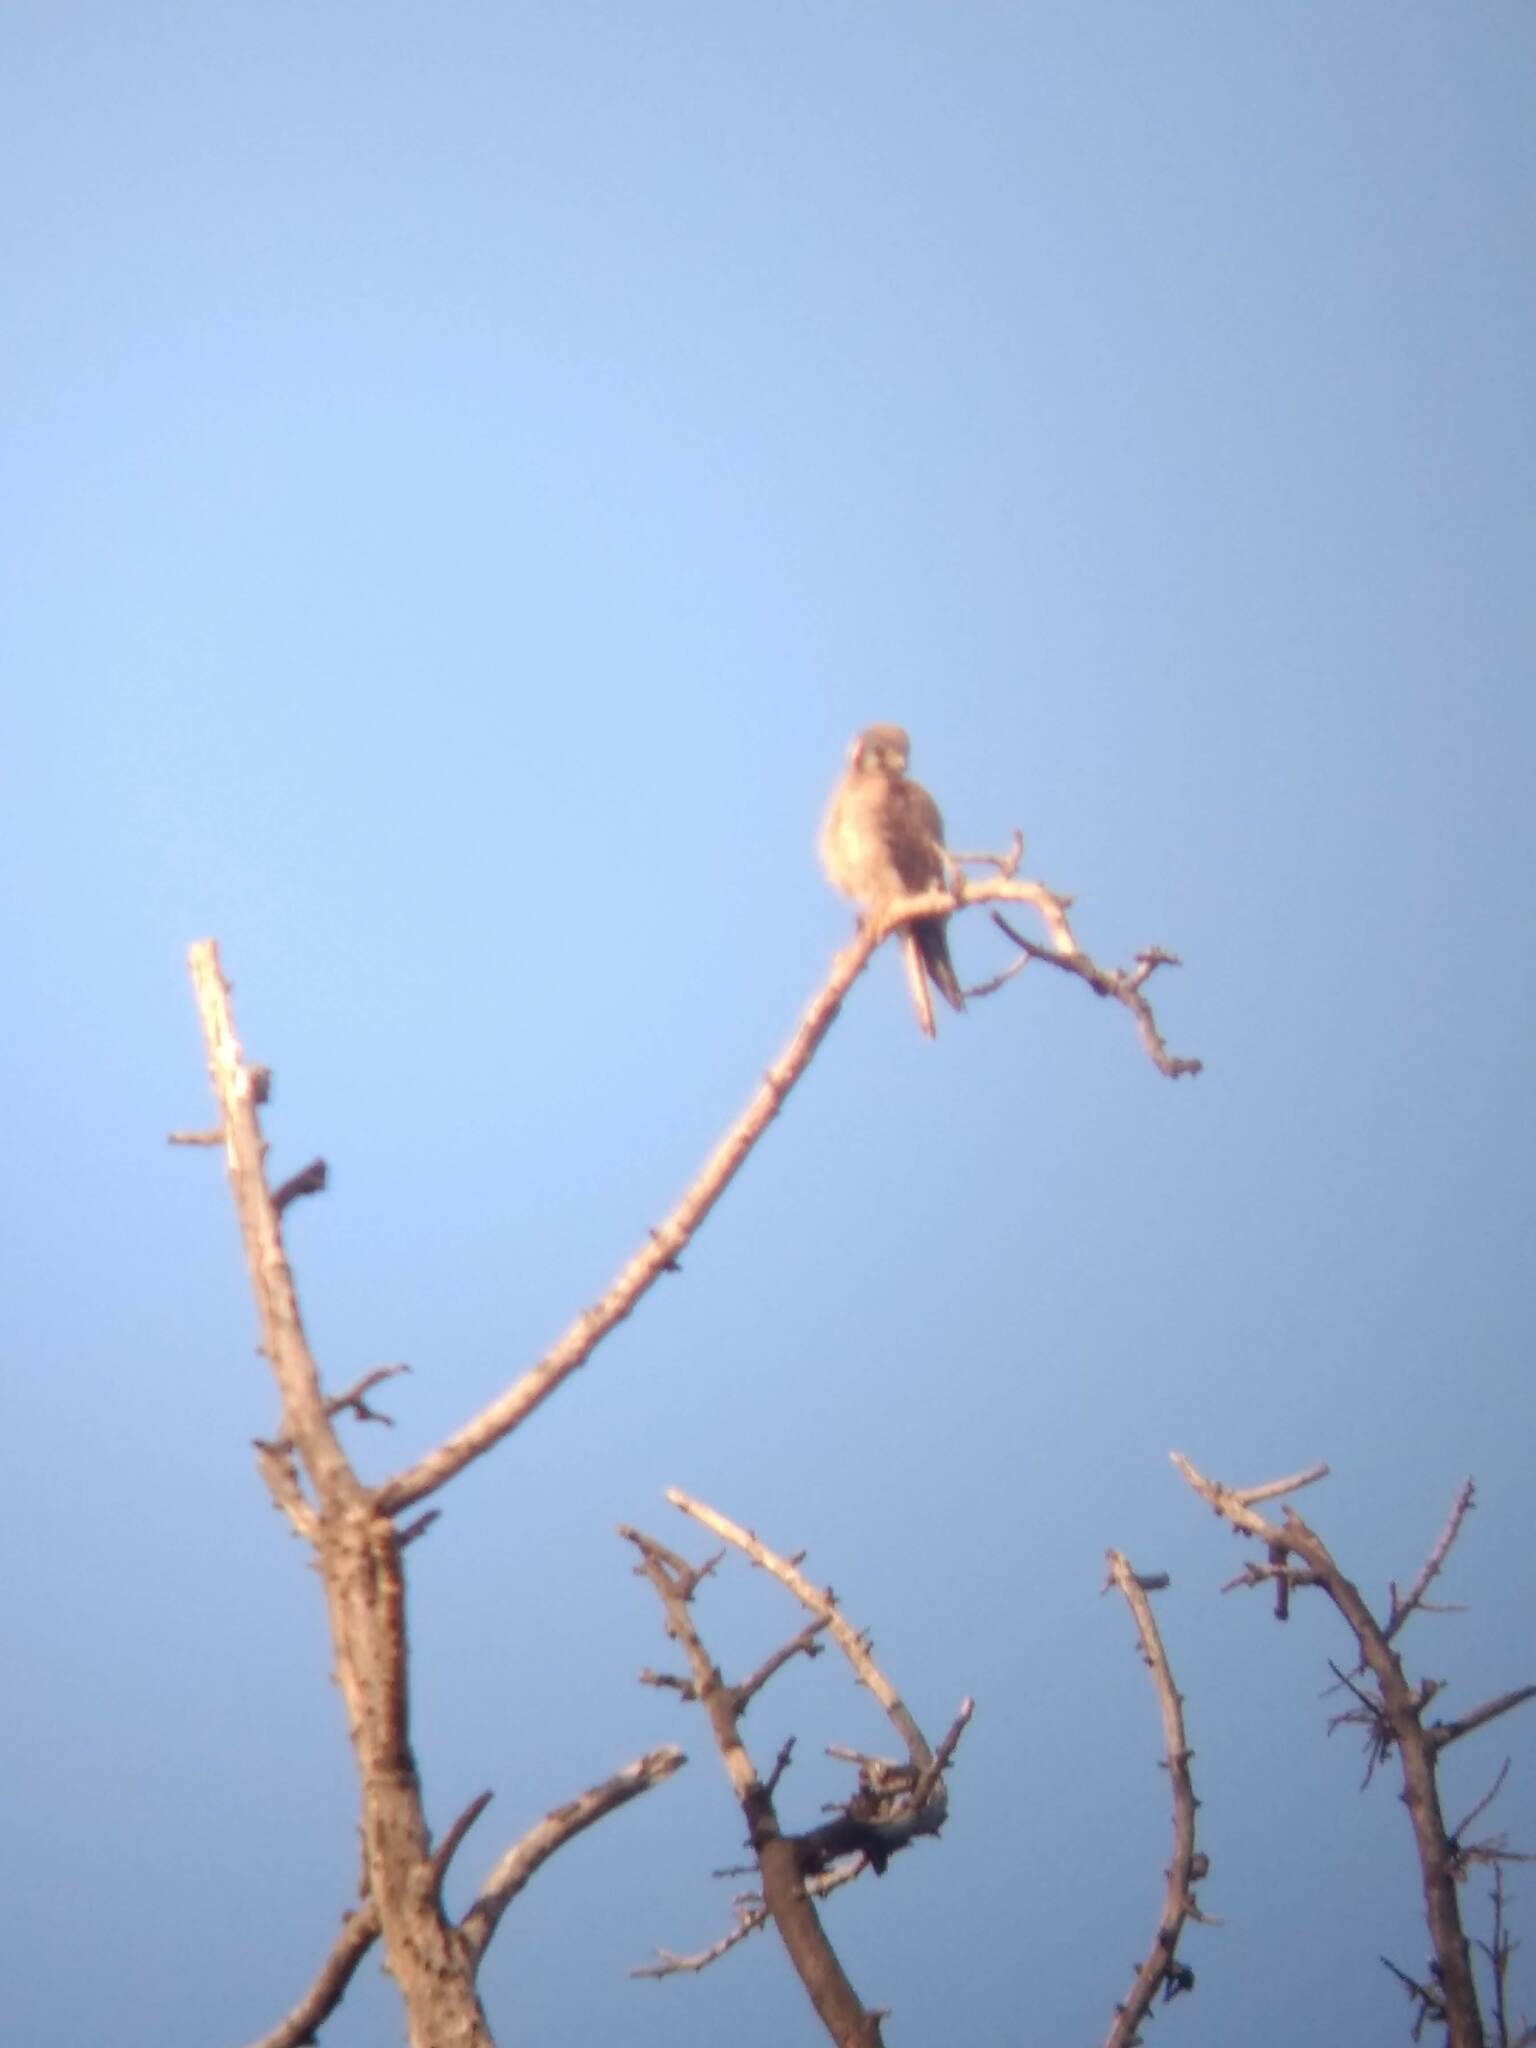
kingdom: Animalia
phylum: Chordata
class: Aves
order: Falconiformes
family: Falconidae
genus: Falco
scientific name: Falco sparverius
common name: American kestrel
